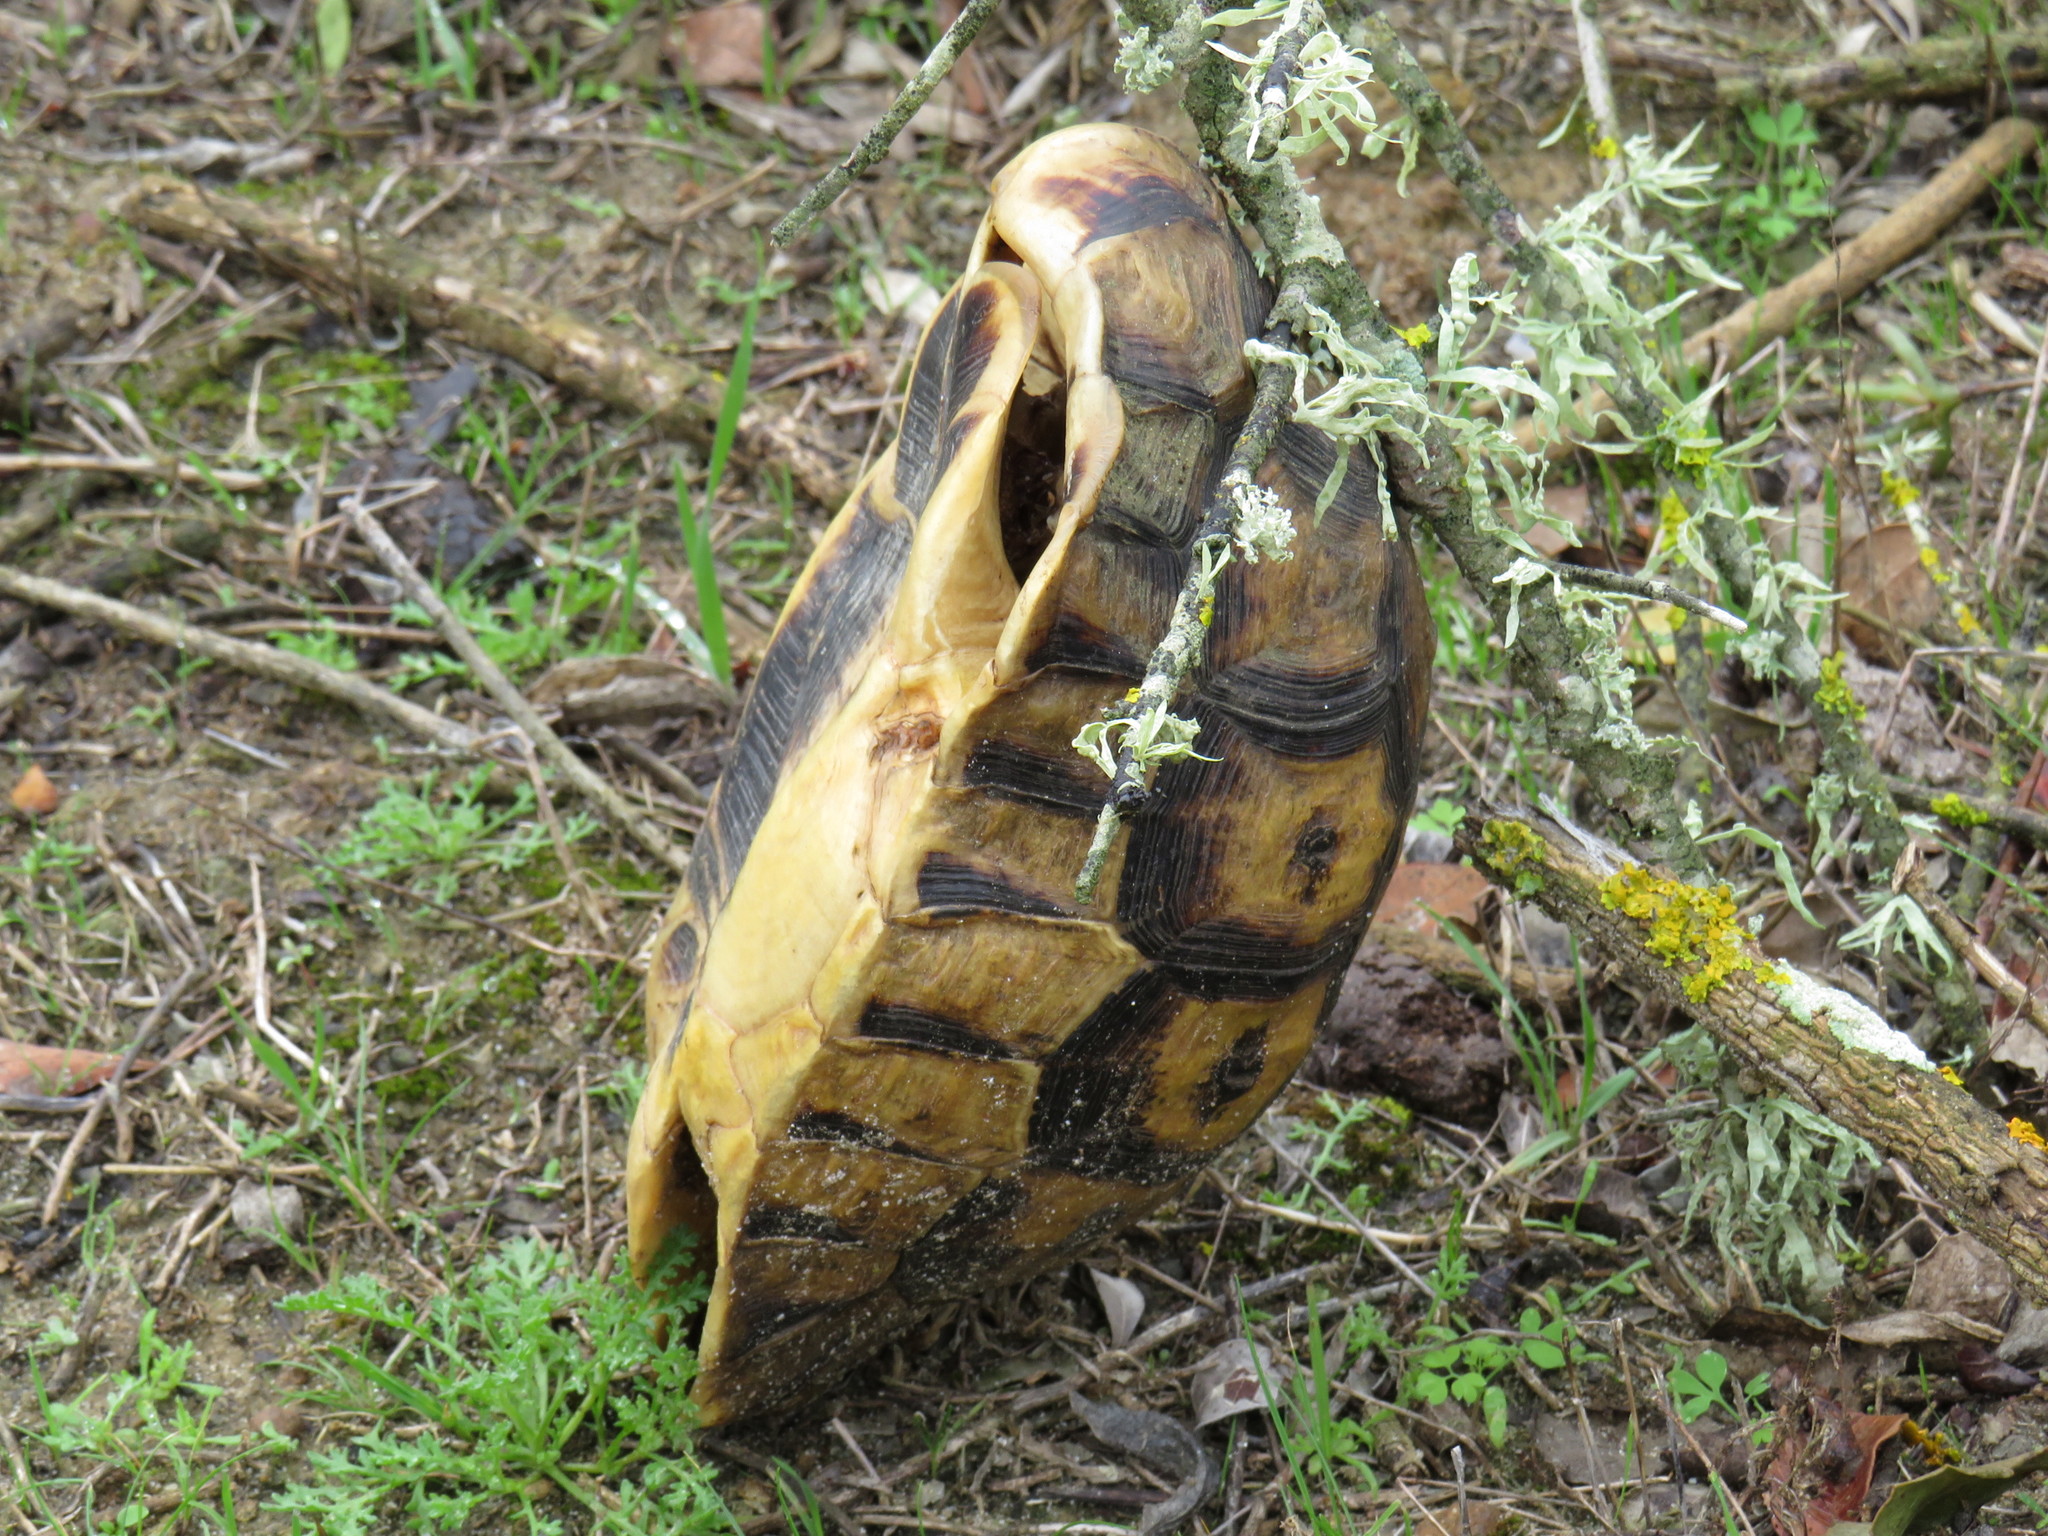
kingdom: Animalia
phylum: Chordata
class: Testudines
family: Testudinidae
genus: Chersina
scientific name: Chersina angulata
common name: South african bowsprit tortoise
